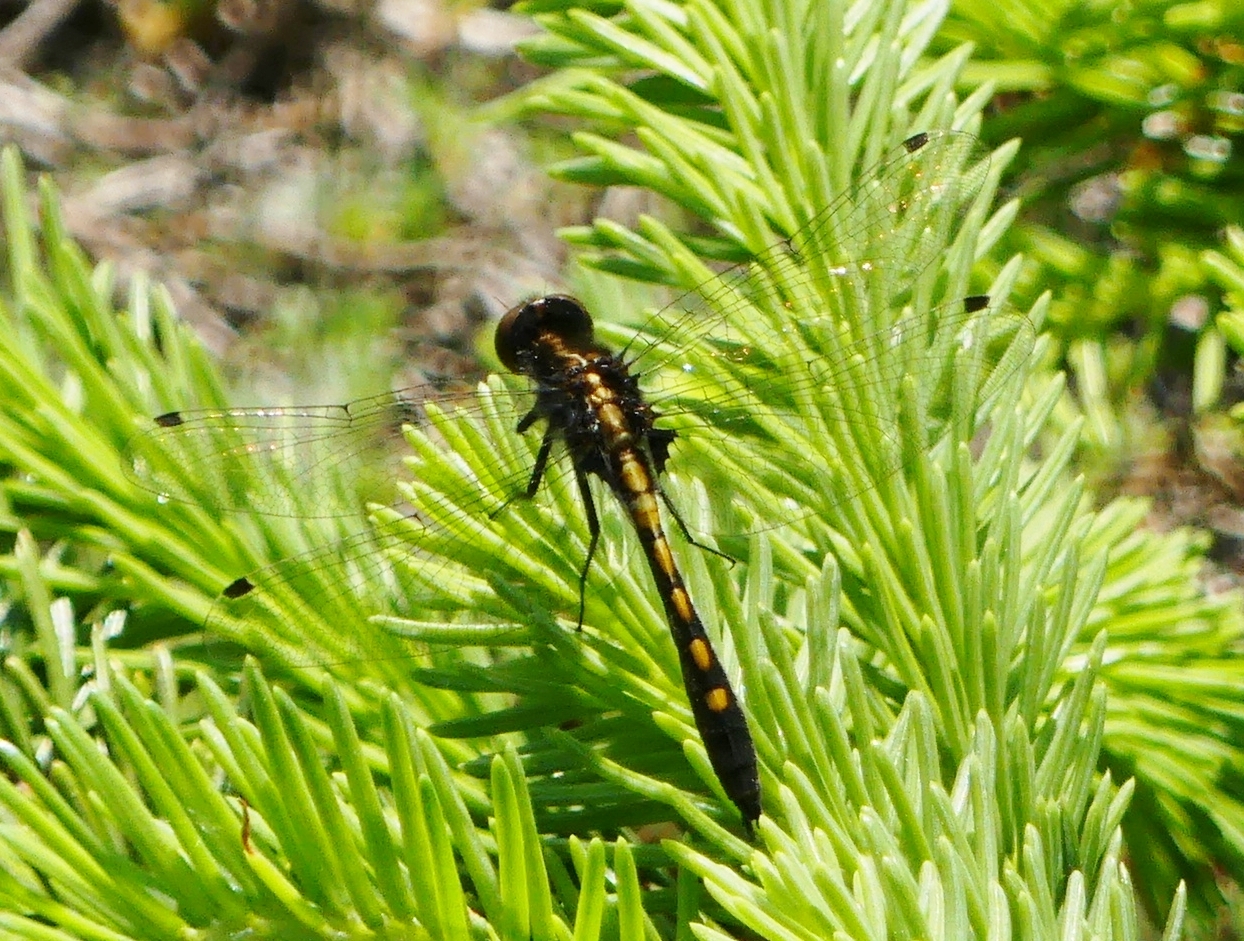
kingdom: Animalia
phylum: Arthropoda
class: Insecta
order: Odonata
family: Libellulidae
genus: Leucorrhinia
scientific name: Leucorrhinia intacta
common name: Dot-tailed whiteface
